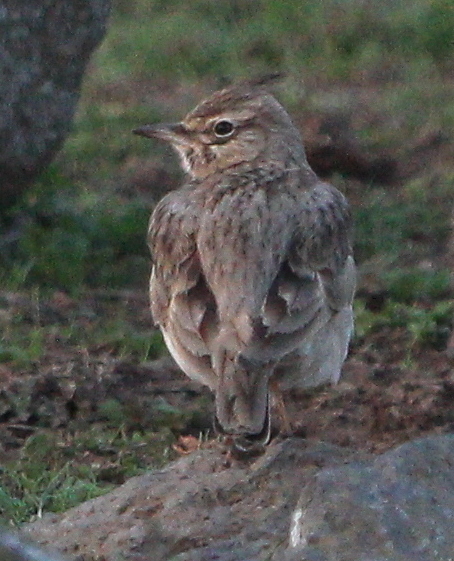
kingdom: Animalia
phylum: Chordata
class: Aves
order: Passeriformes
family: Alaudidae
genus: Galerida
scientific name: Galerida cristata
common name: Crested lark
